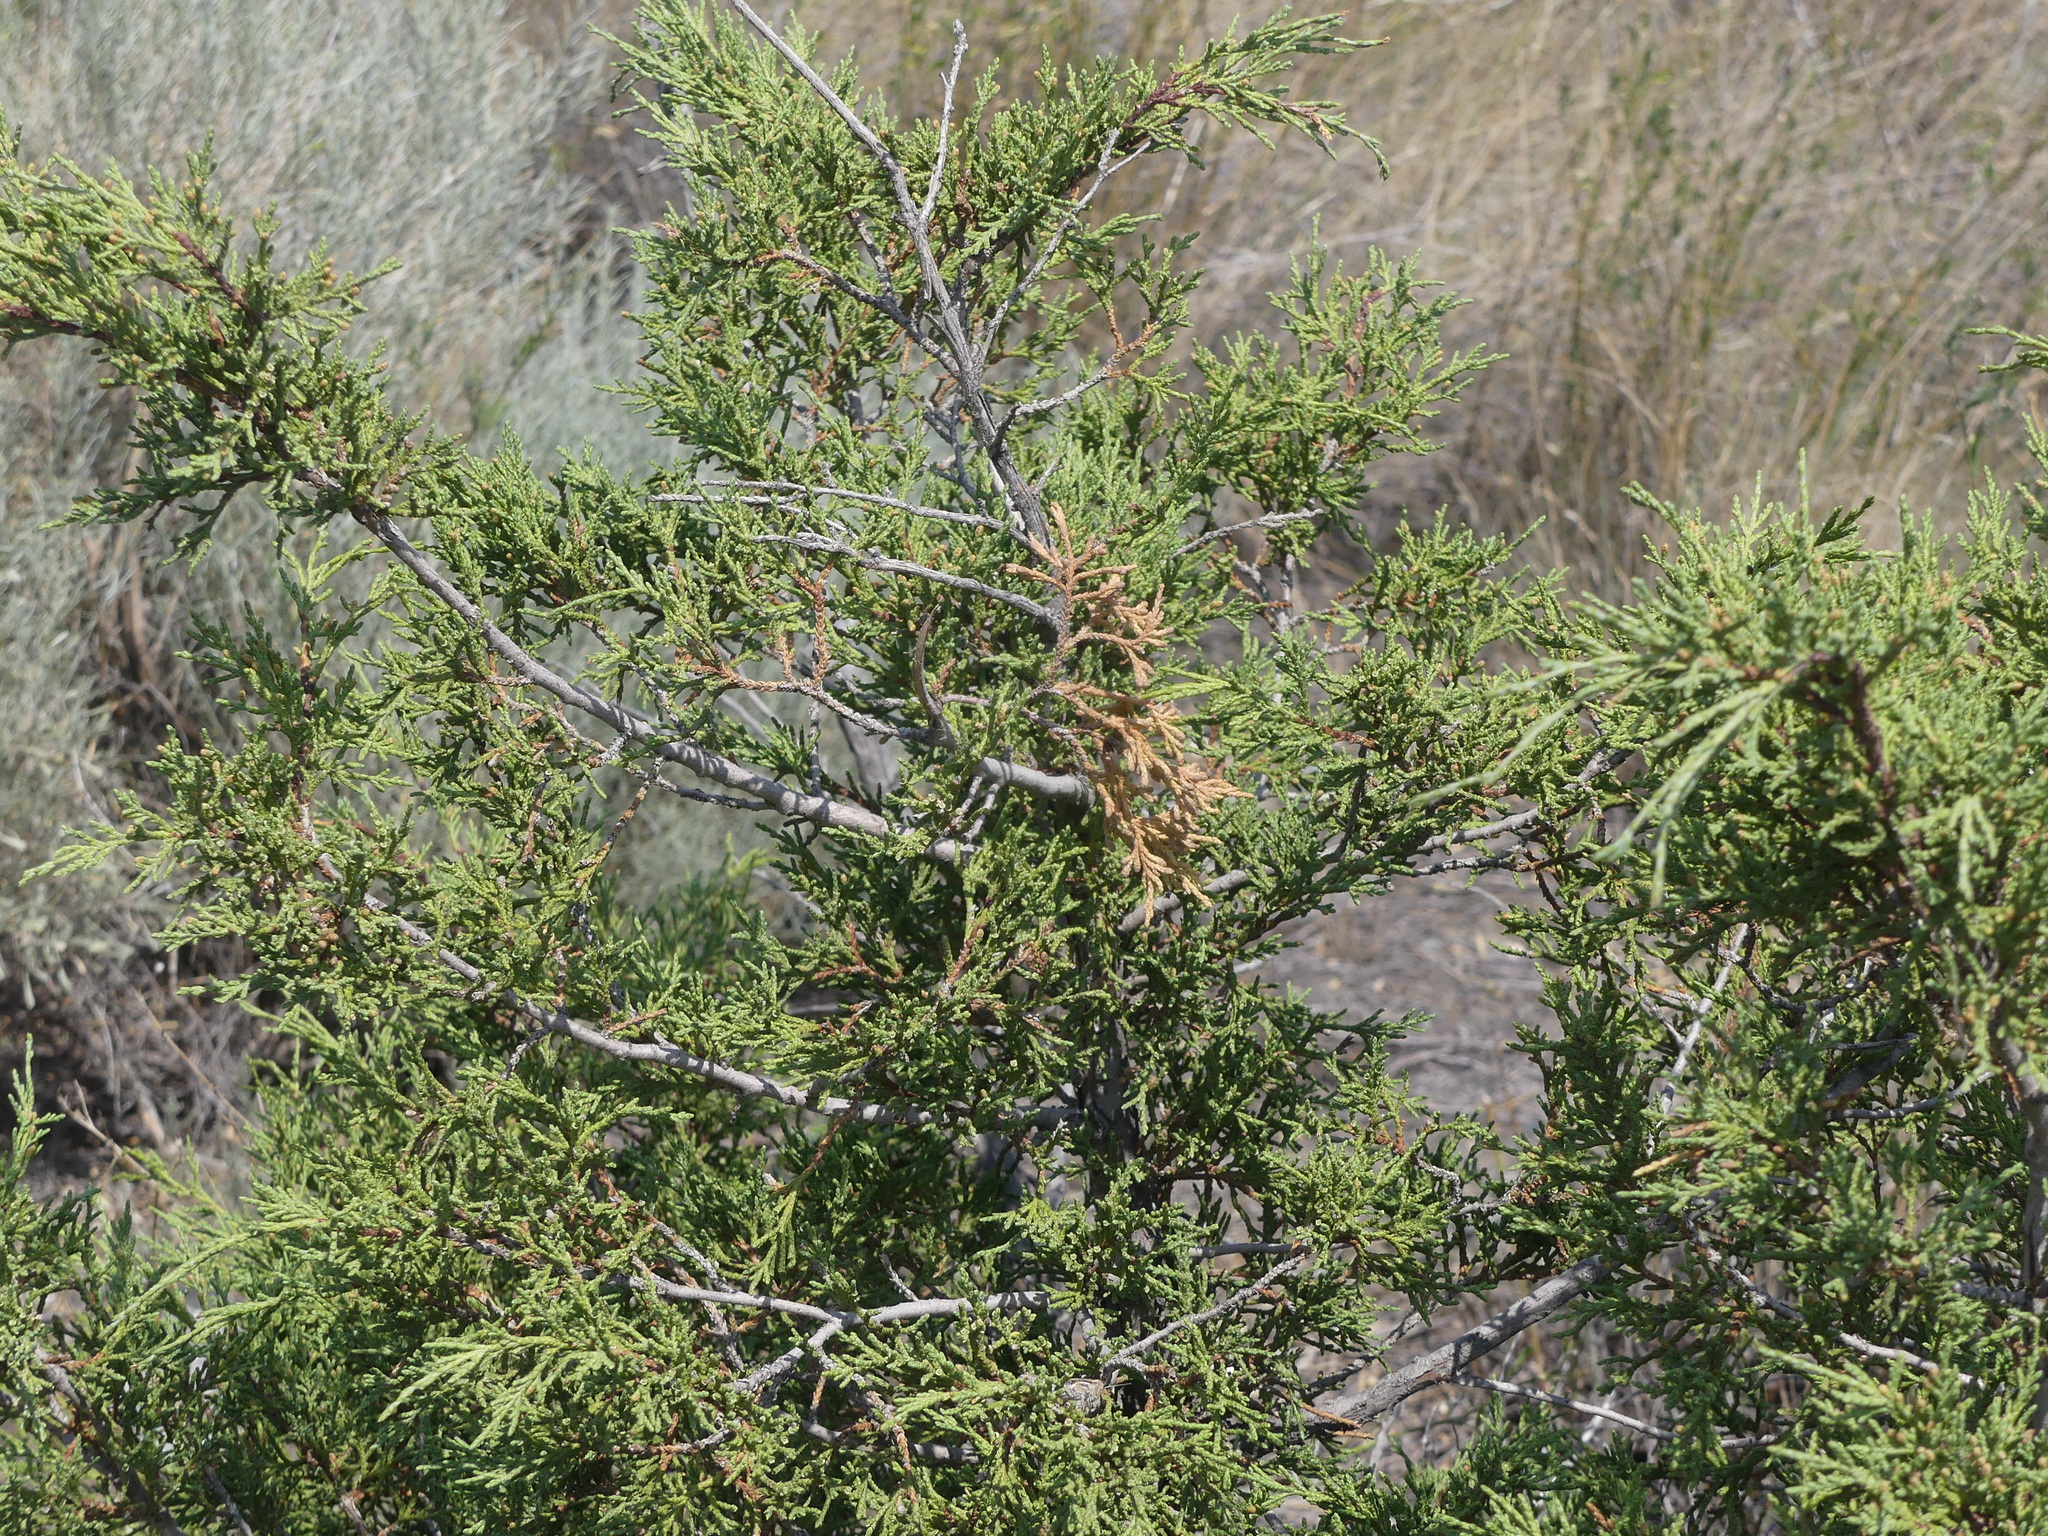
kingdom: Plantae
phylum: Tracheophyta
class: Pinopsida
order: Pinales
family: Cupressaceae
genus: Juniperus
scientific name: Juniperus scopulorum
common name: Rocky mountain juniper
